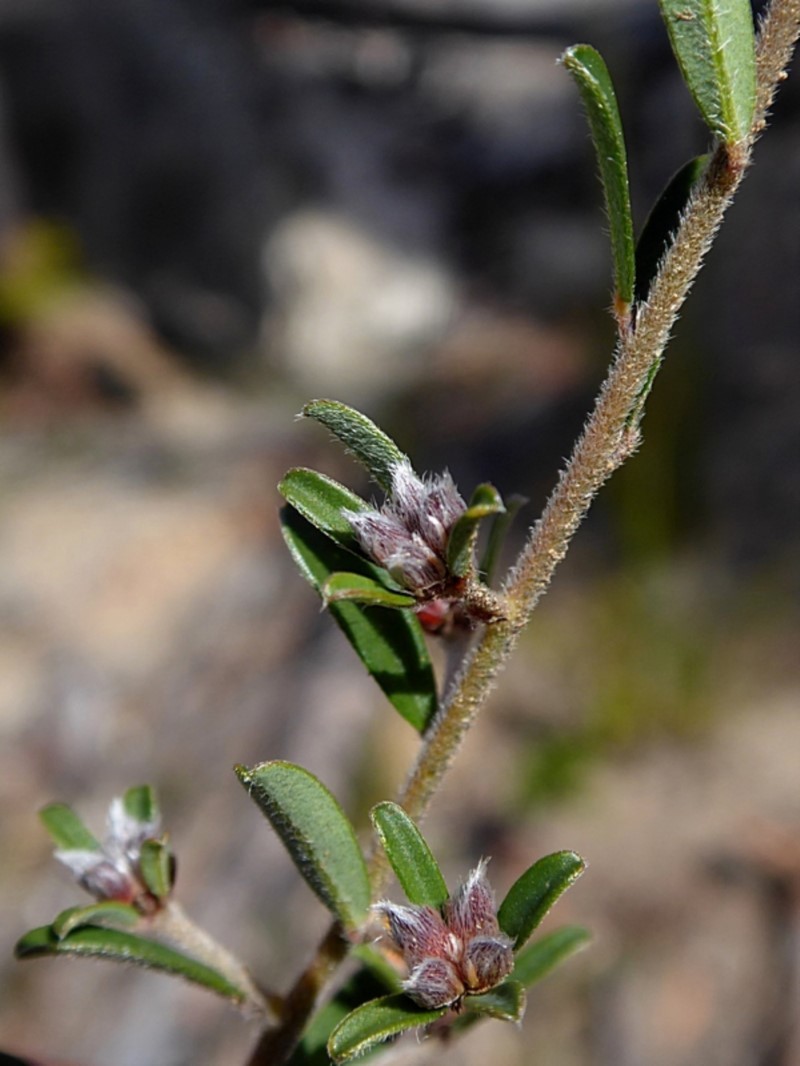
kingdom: Plantae
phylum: Tracheophyta
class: Magnoliopsida
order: Fabales
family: Fabaceae
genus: Pultenaea
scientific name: Pultenaea linophylla
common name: Halo bush-pea
